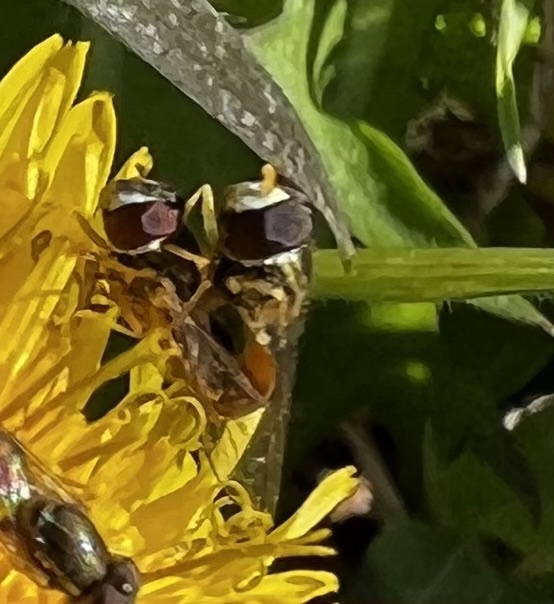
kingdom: Animalia
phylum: Arthropoda
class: Insecta
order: Diptera
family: Syrphidae
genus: Toxomerus
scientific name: Toxomerus marginatus
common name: Syrphid fly
